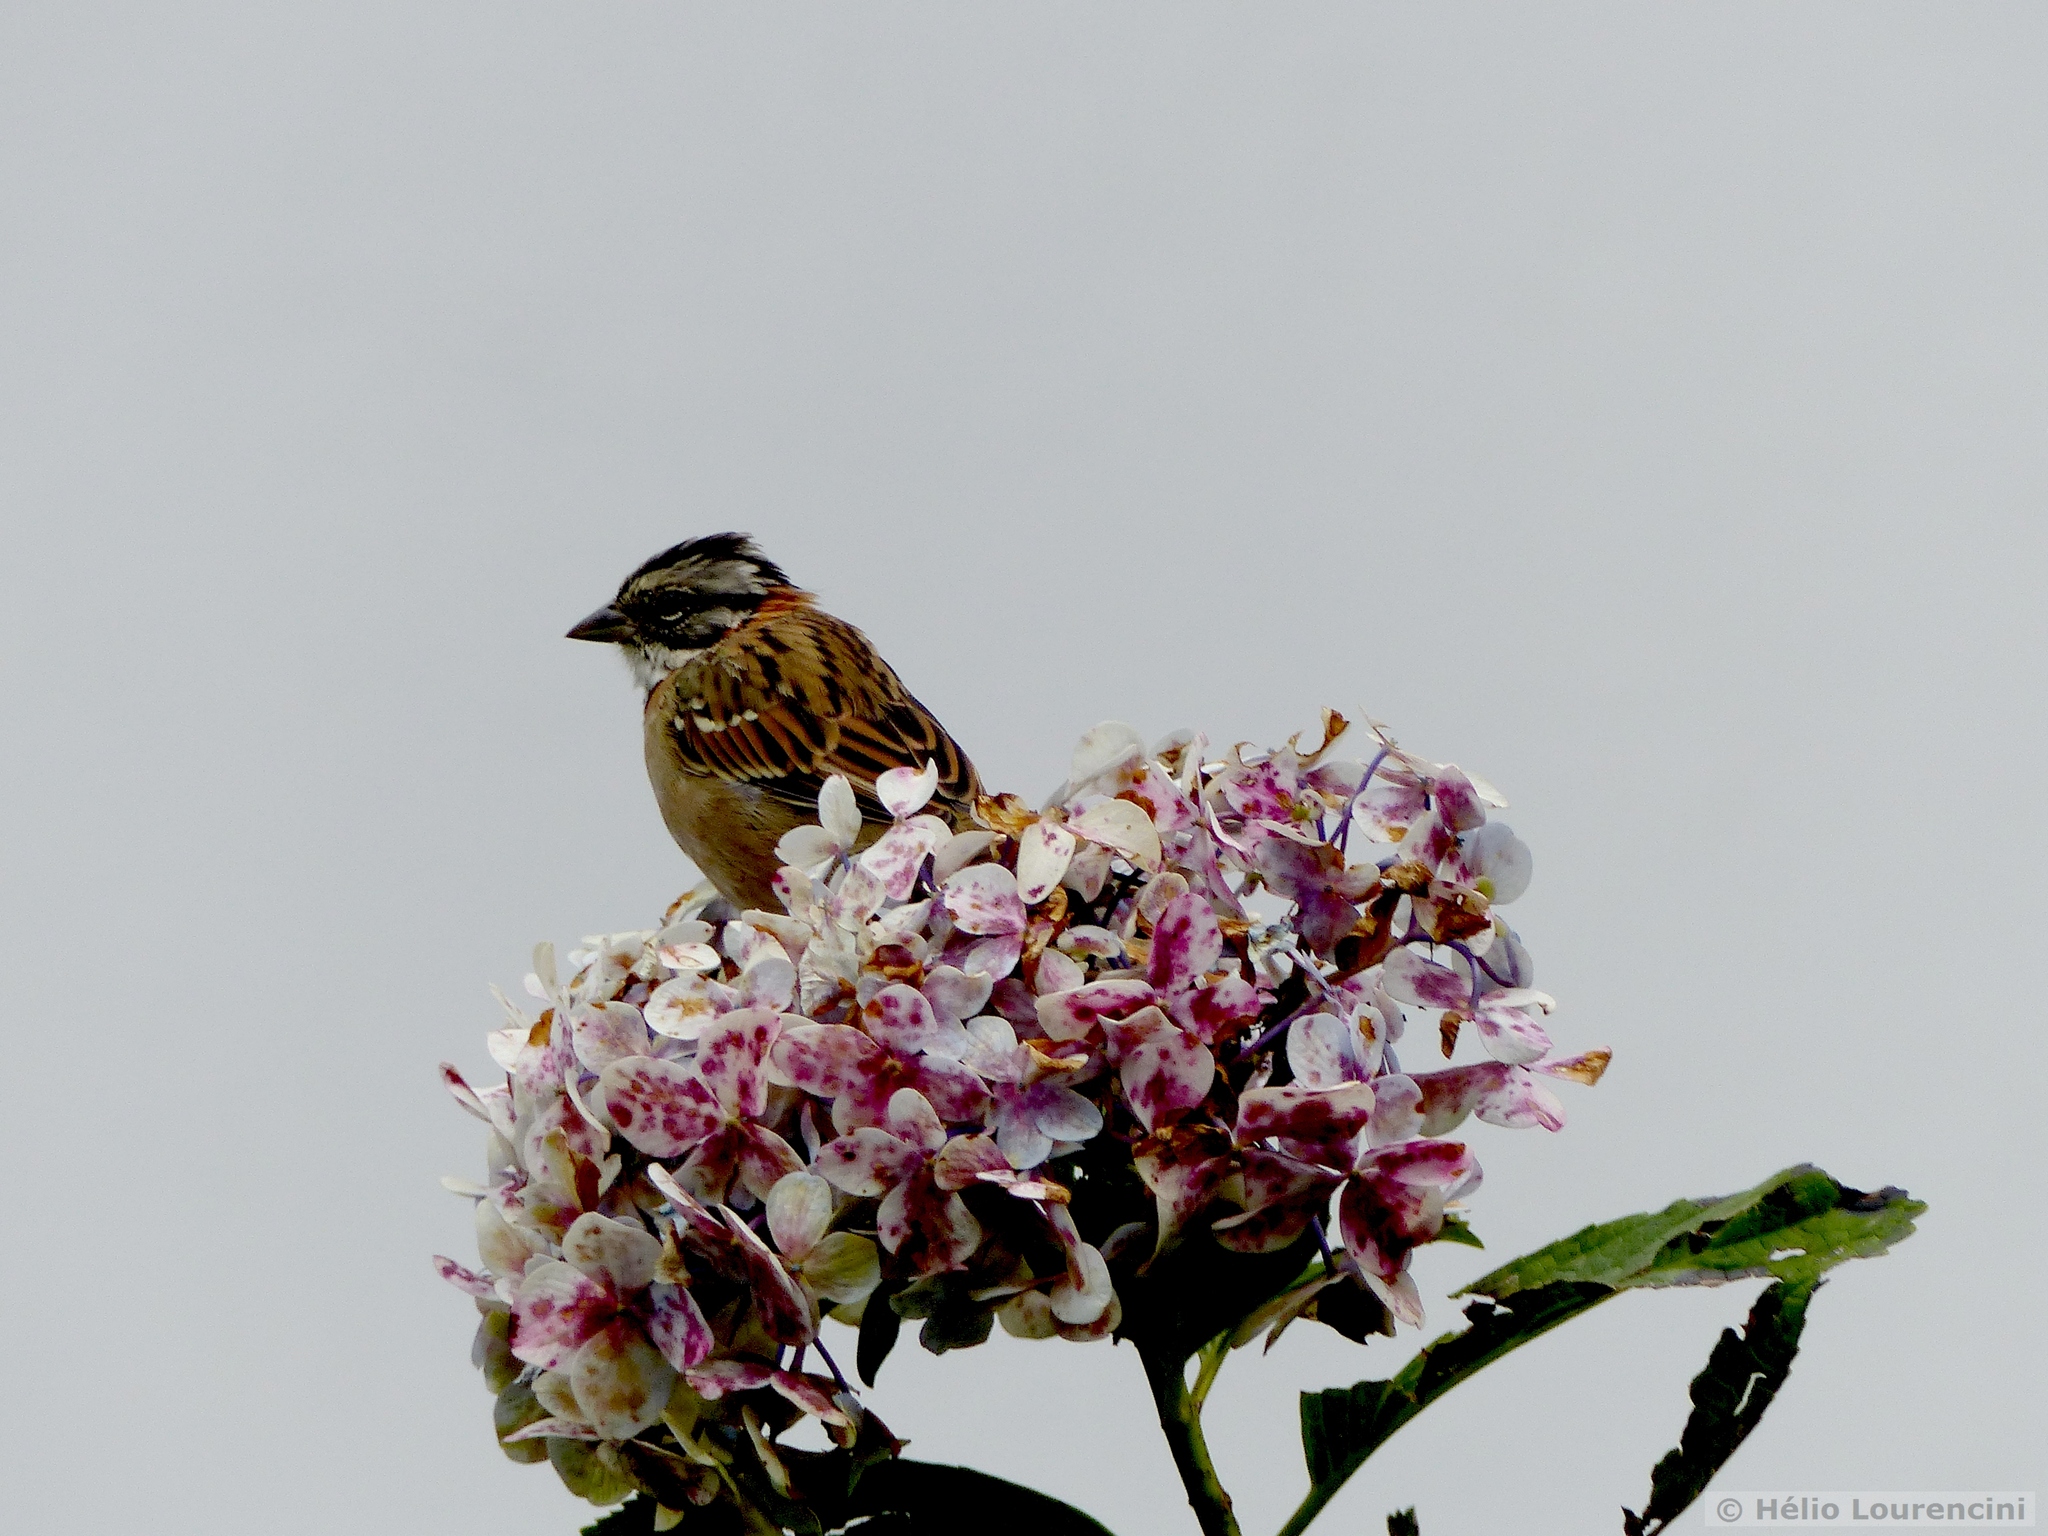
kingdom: Animalia
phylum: Chordata
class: Aves
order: Passeriformes
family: Passerellidae
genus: Zonotrichia
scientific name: Zonotrichia capensis
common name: Rufous-collared sparrow
